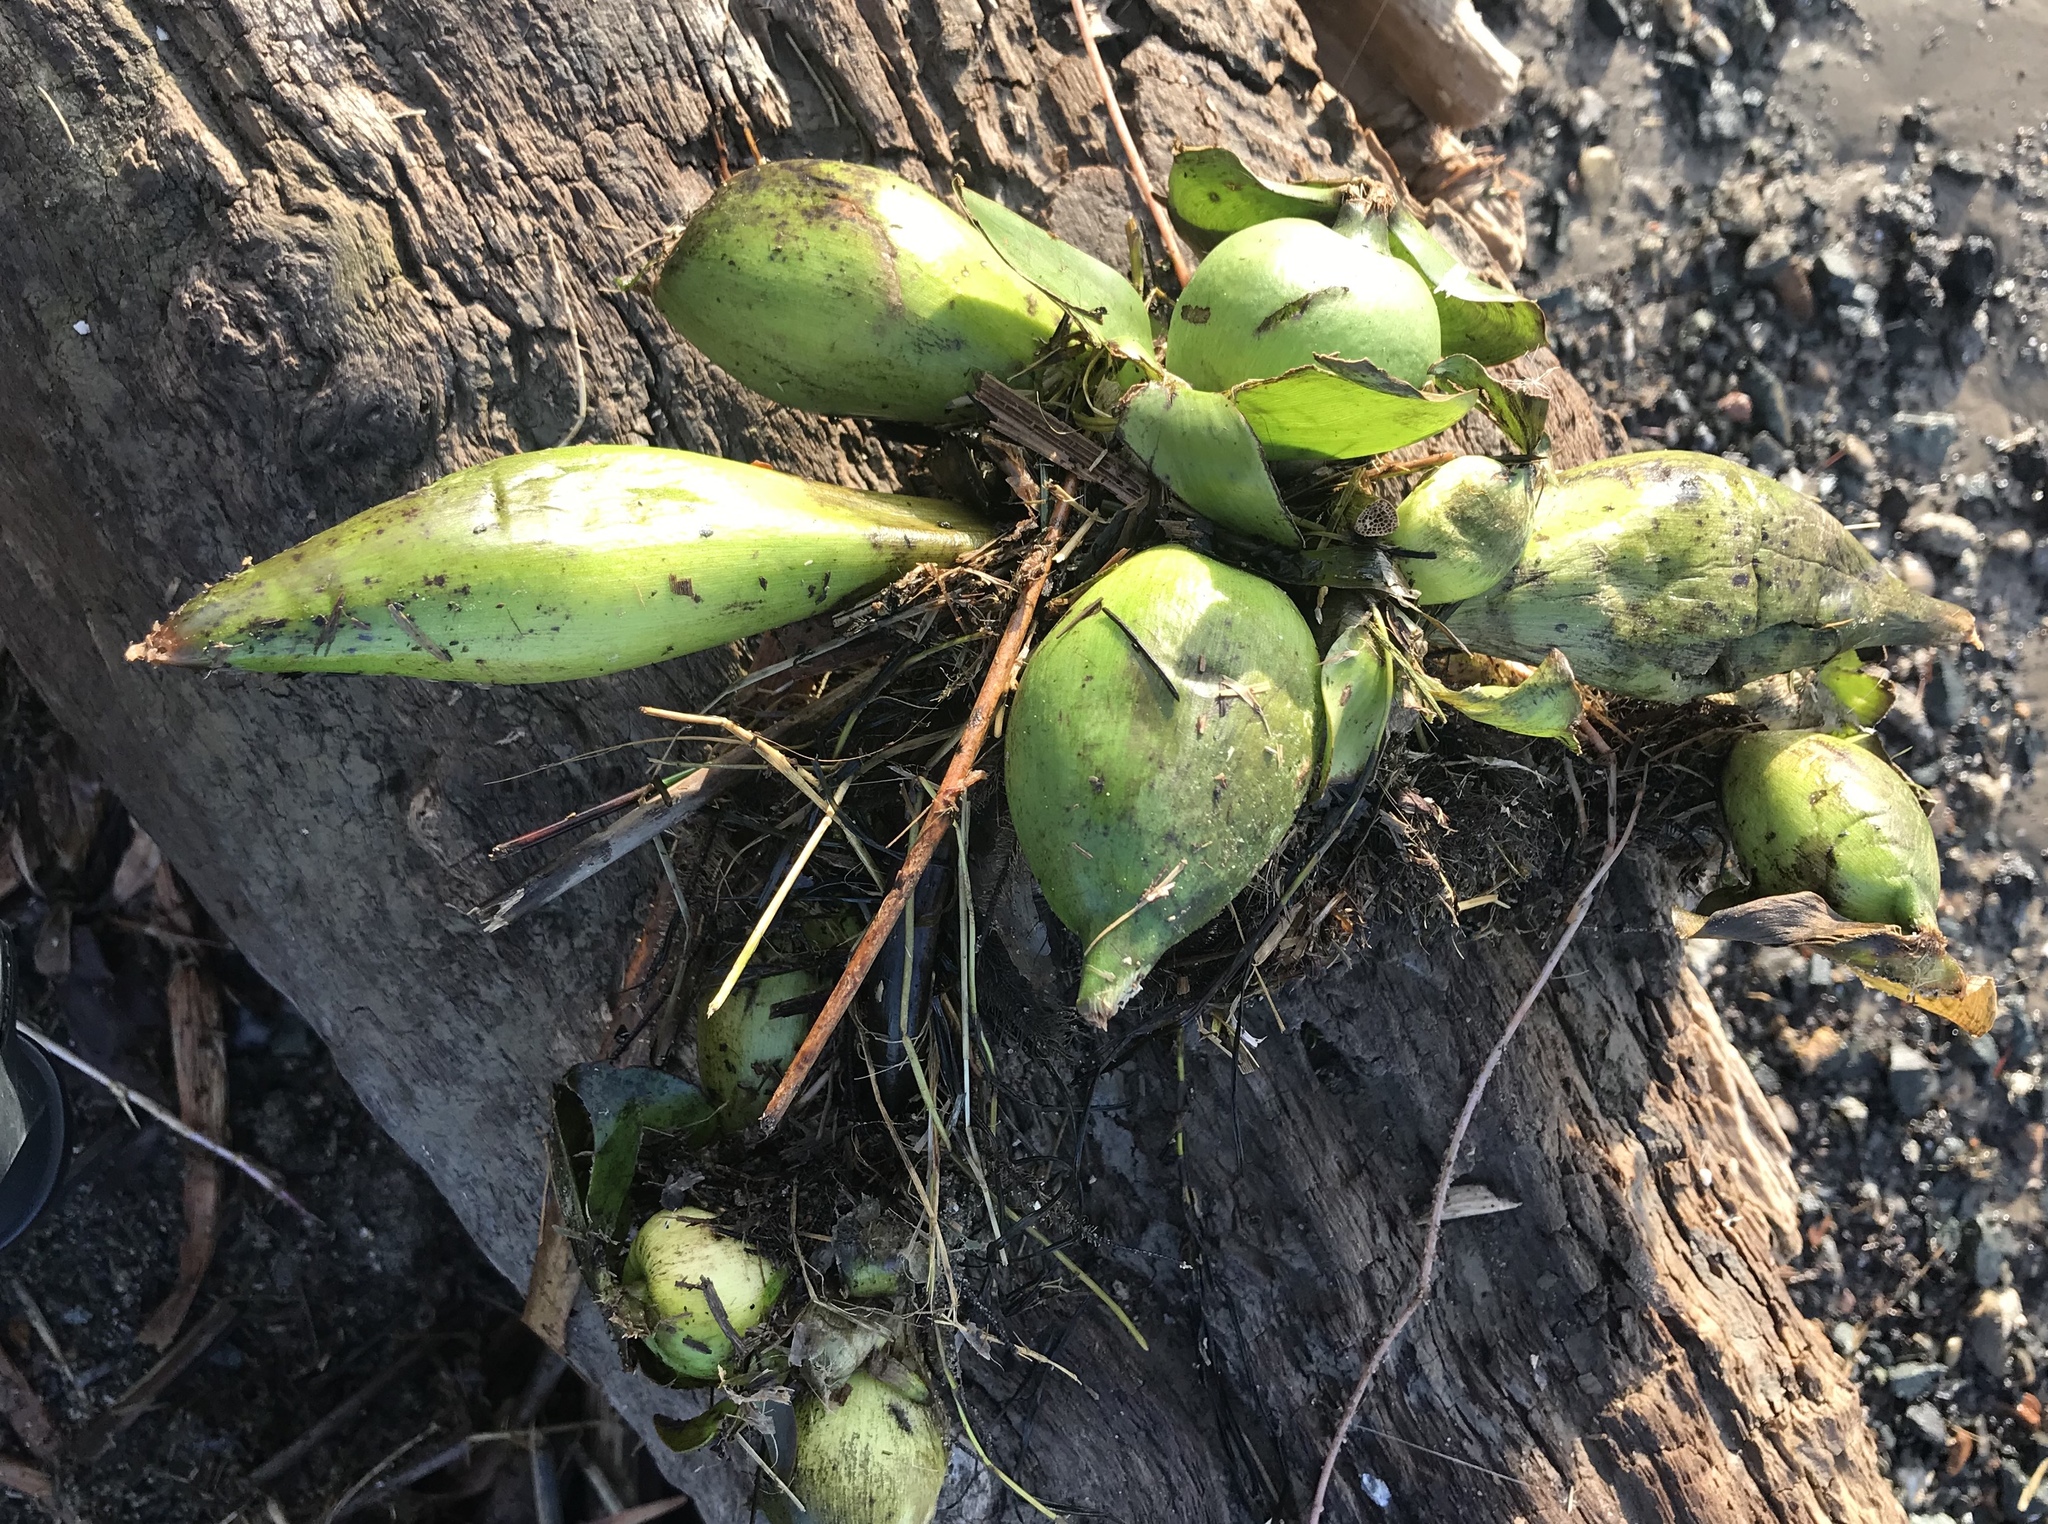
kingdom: Plantae
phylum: Tracheophyta
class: Liliopsida
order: Commelinales
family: Pontederiaceae
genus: Pontederia
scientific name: Pontederia crassipes
